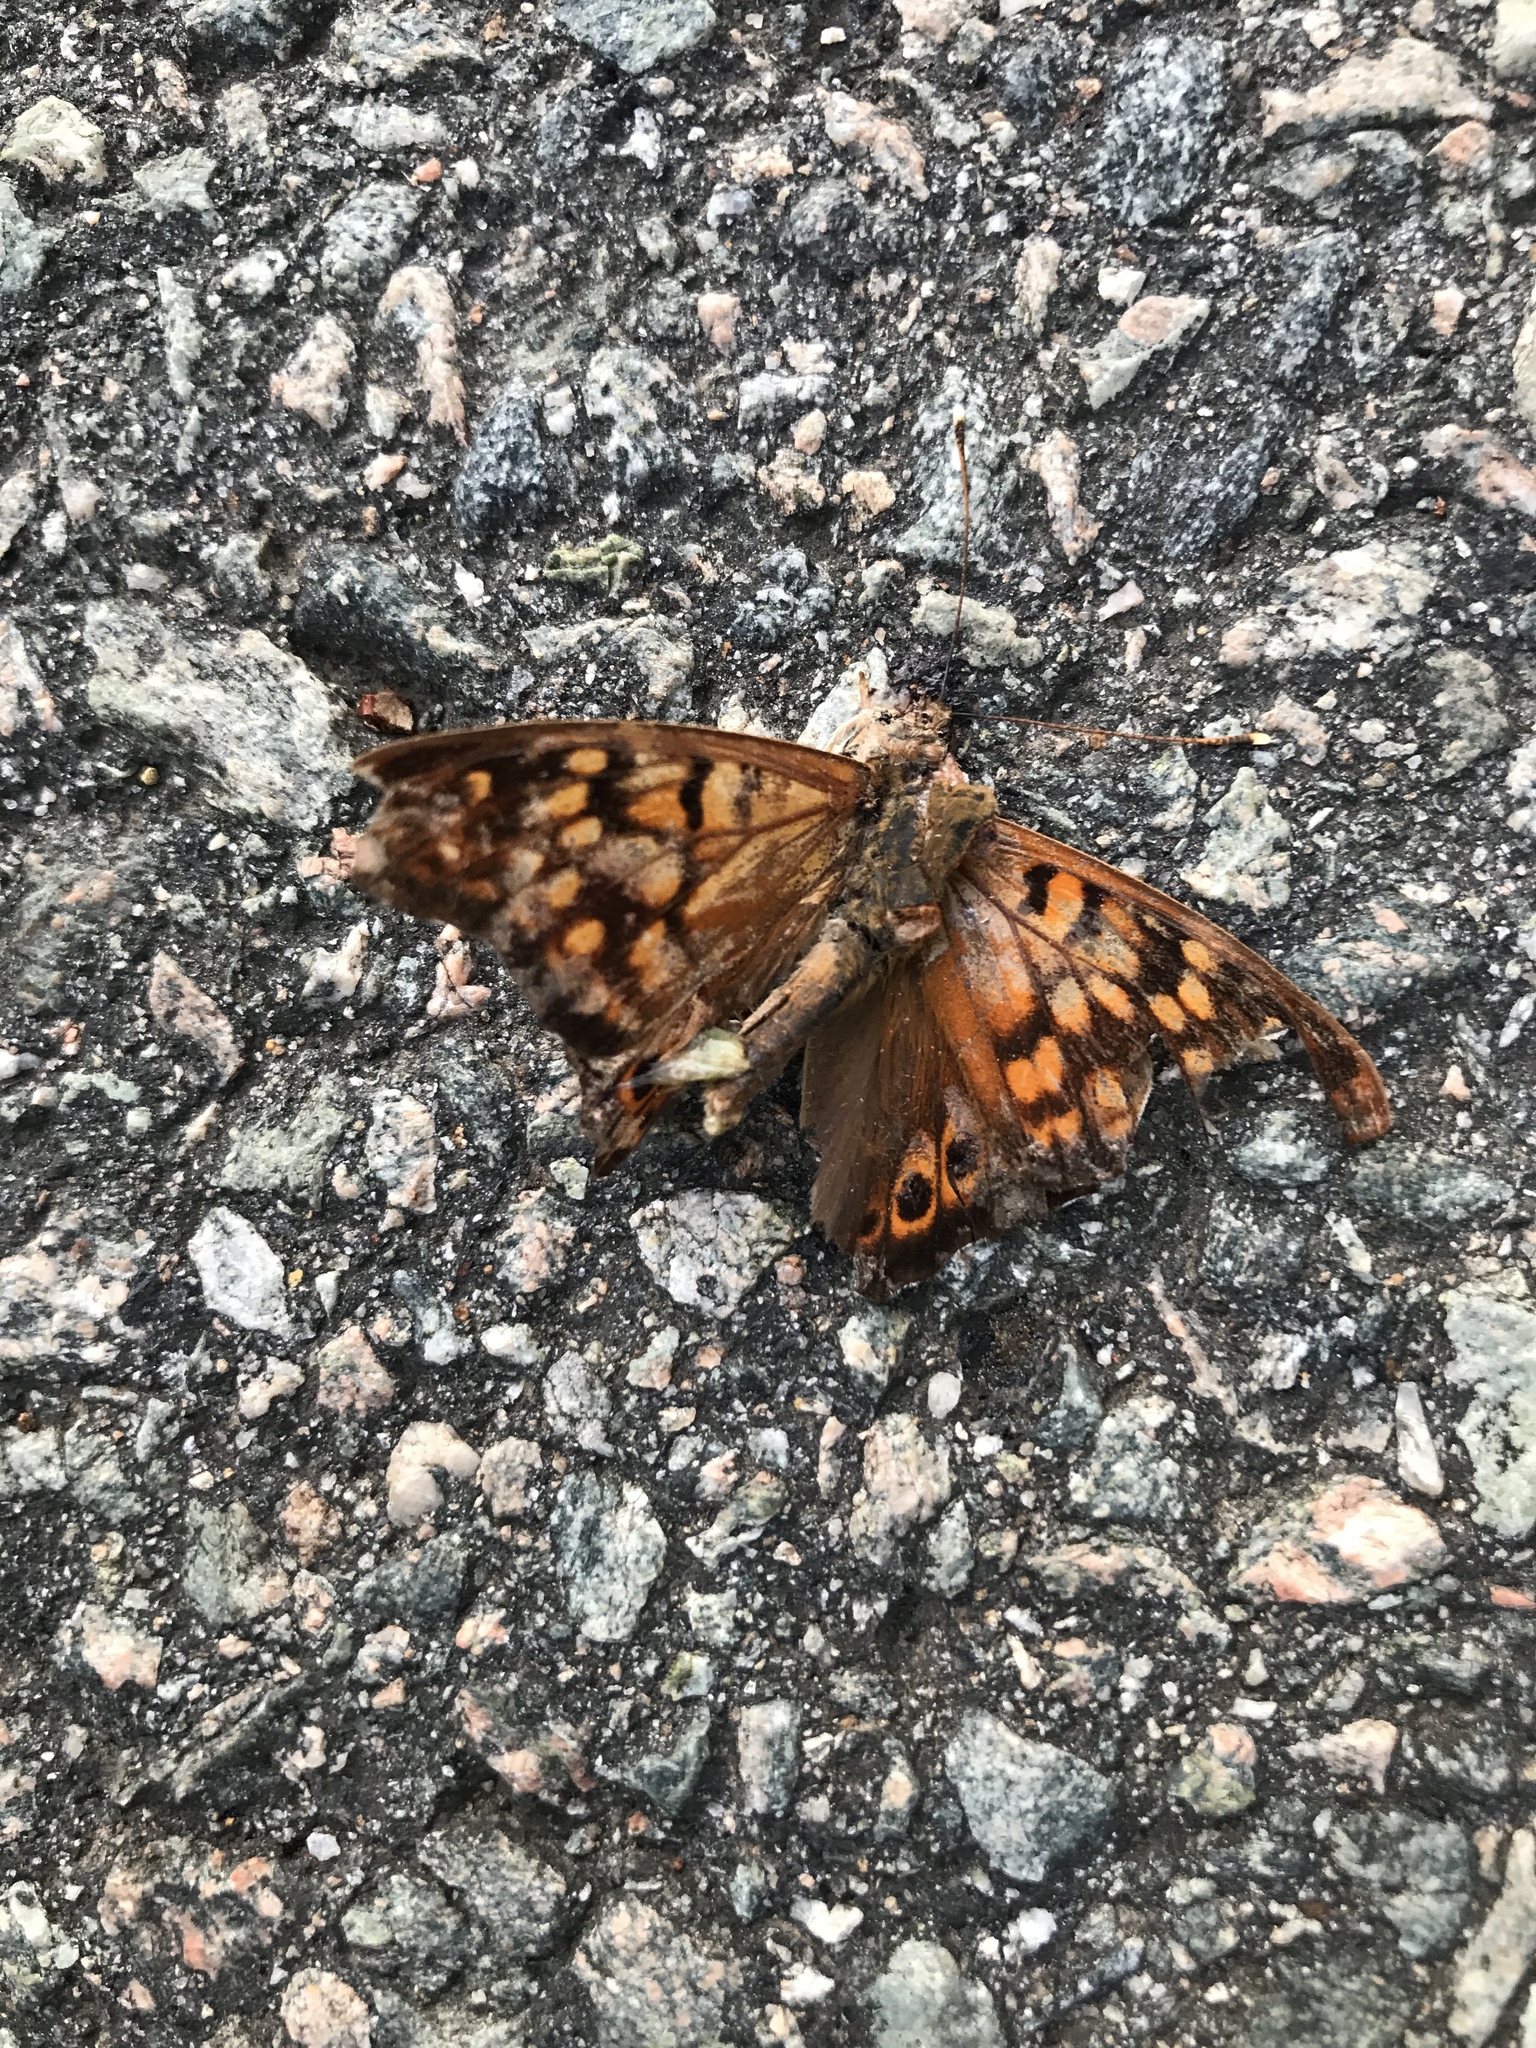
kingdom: Animalia
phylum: Arthropoda
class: Insecta
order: Lepidoptera
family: Nymphalidae
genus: Asterocampa
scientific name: Asterocampa clyton
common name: Tawny emperor
